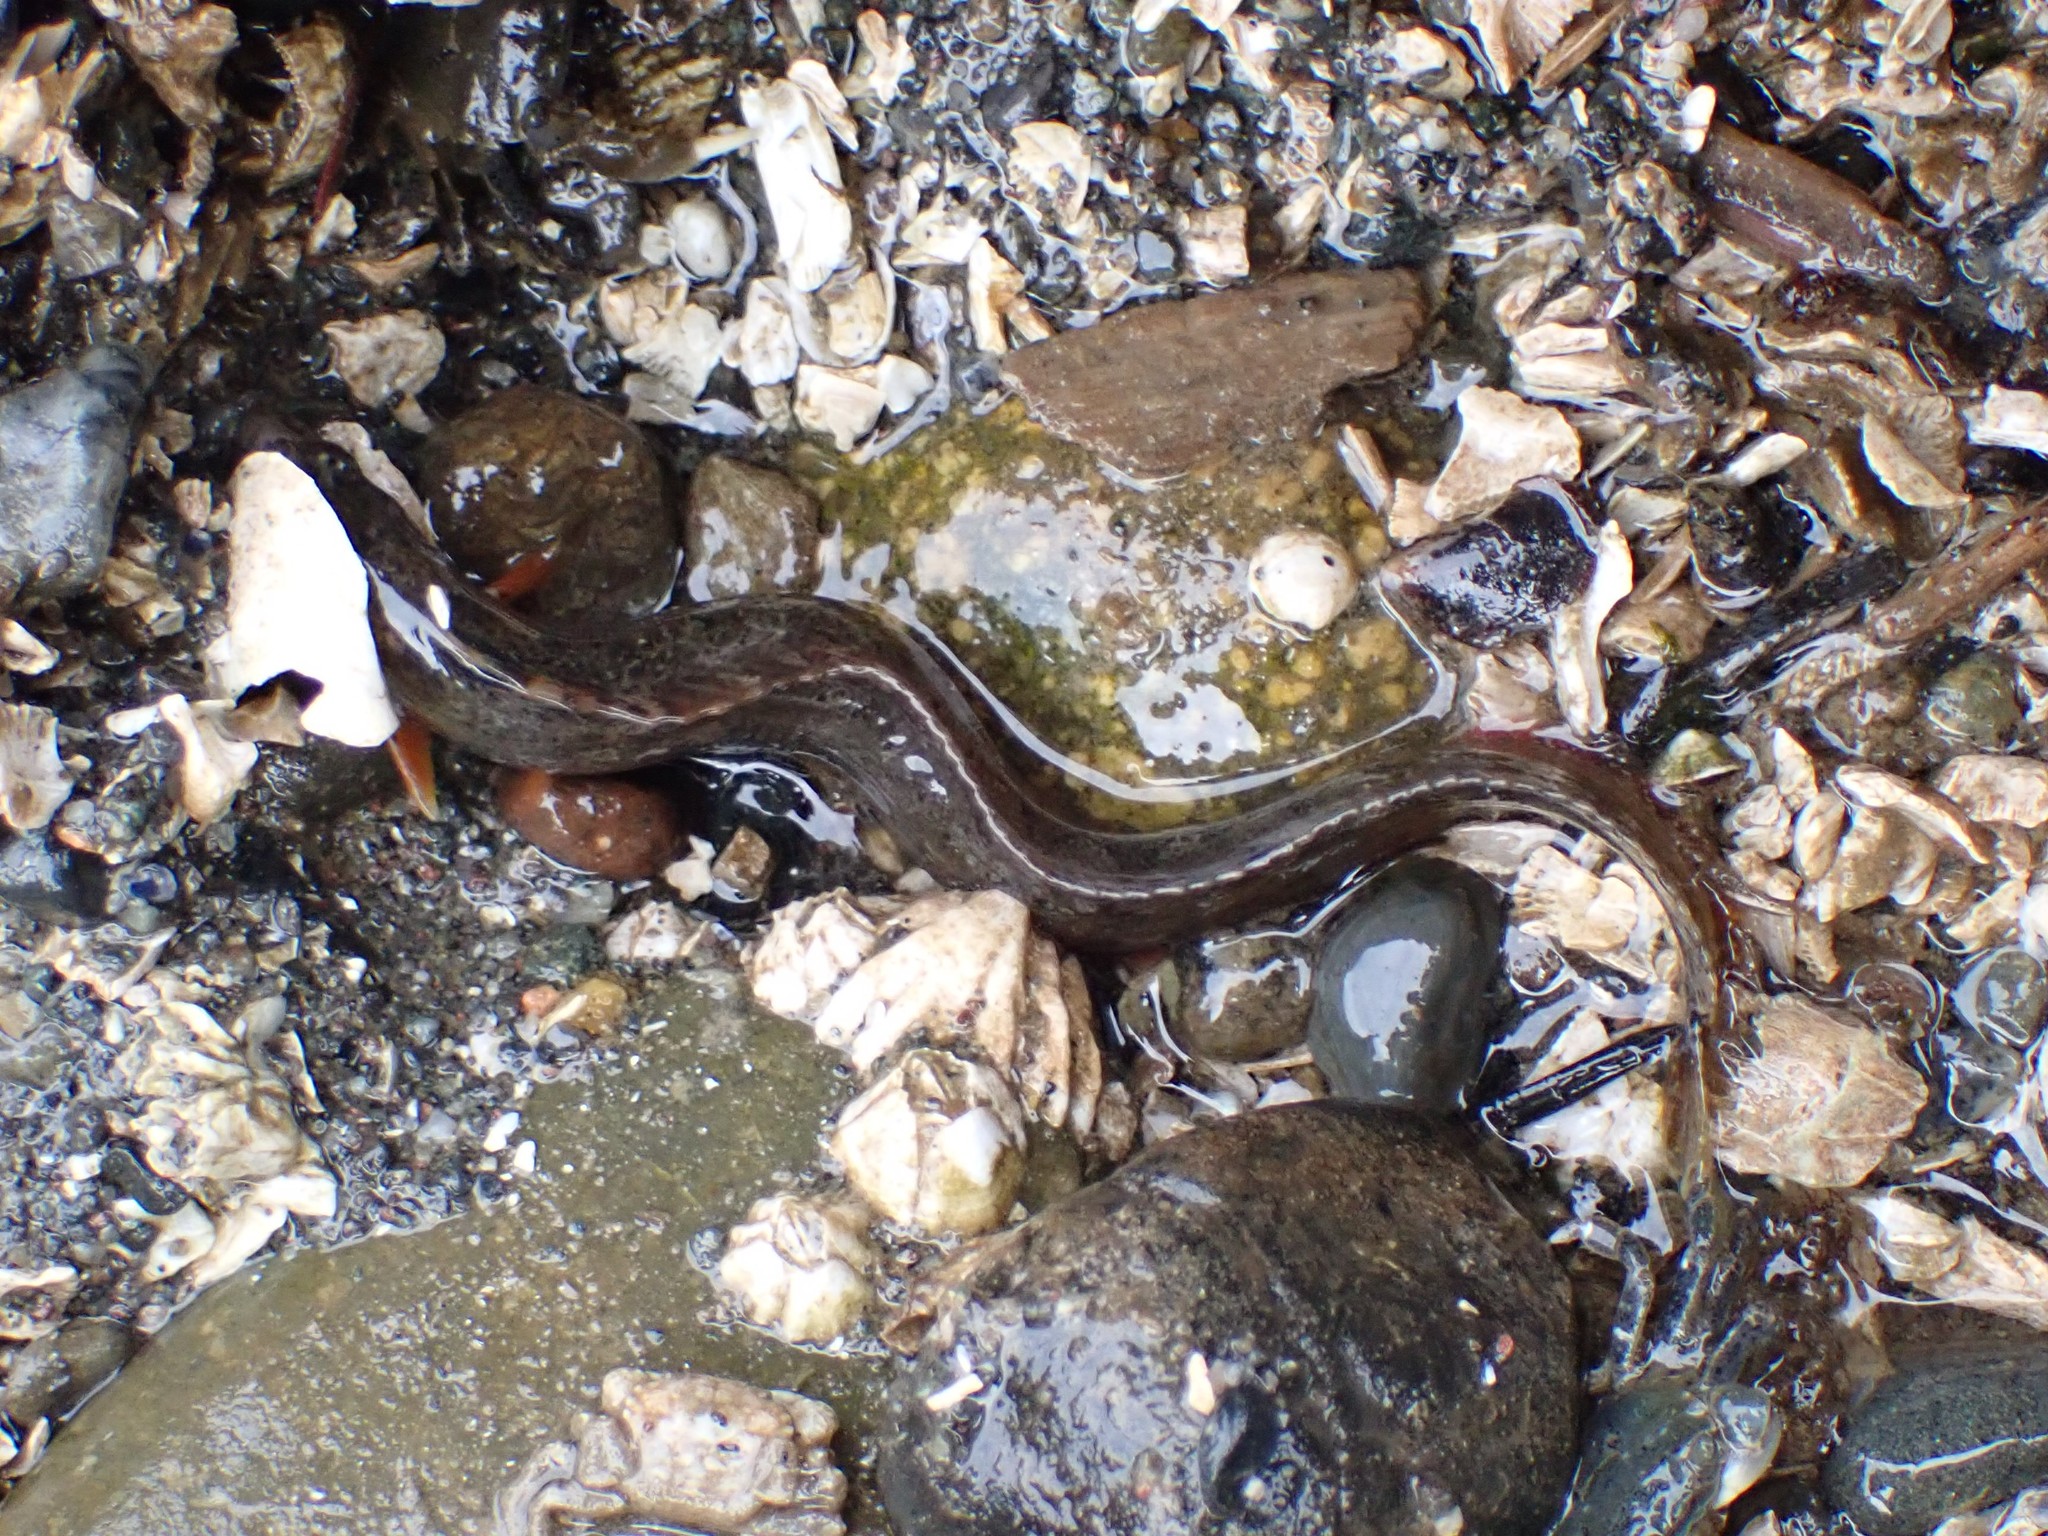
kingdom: Animalia
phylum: Chordata
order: Perciformes
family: Stichaeidae
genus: Anoplarchus
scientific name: Anoplarchus purpurescens
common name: High cockscomb
